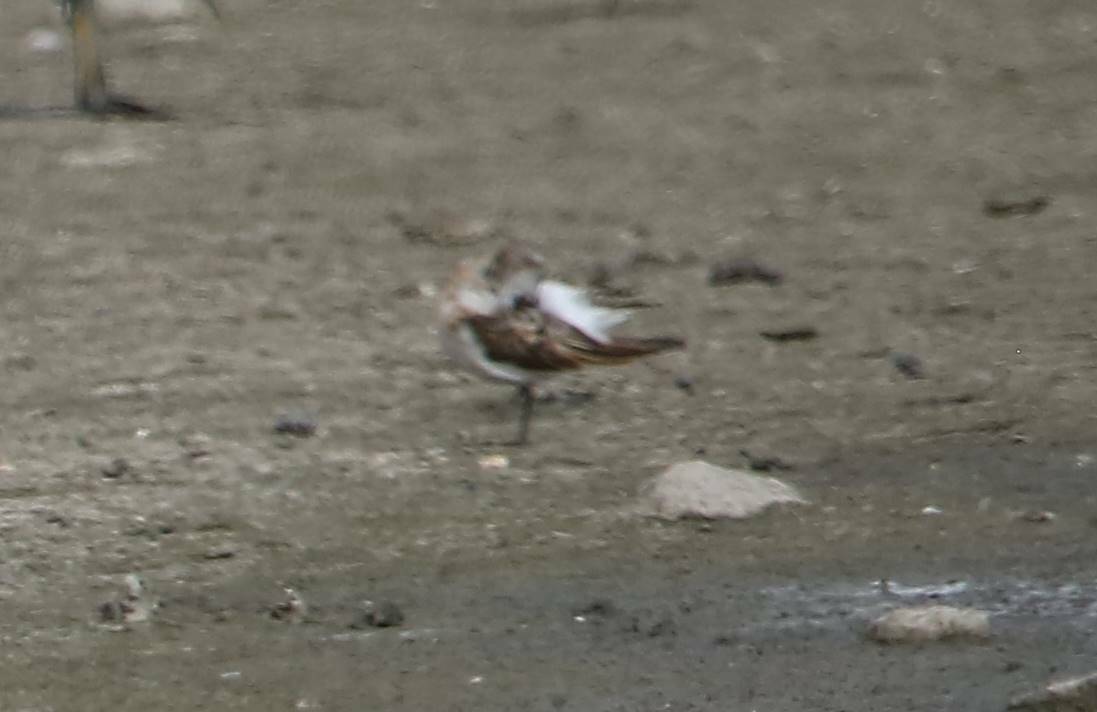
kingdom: Animalia
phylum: Chordata
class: Aves
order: Charadriiformes
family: Scolopacidae
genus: Calidris
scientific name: Calidris minuta
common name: Little stint
